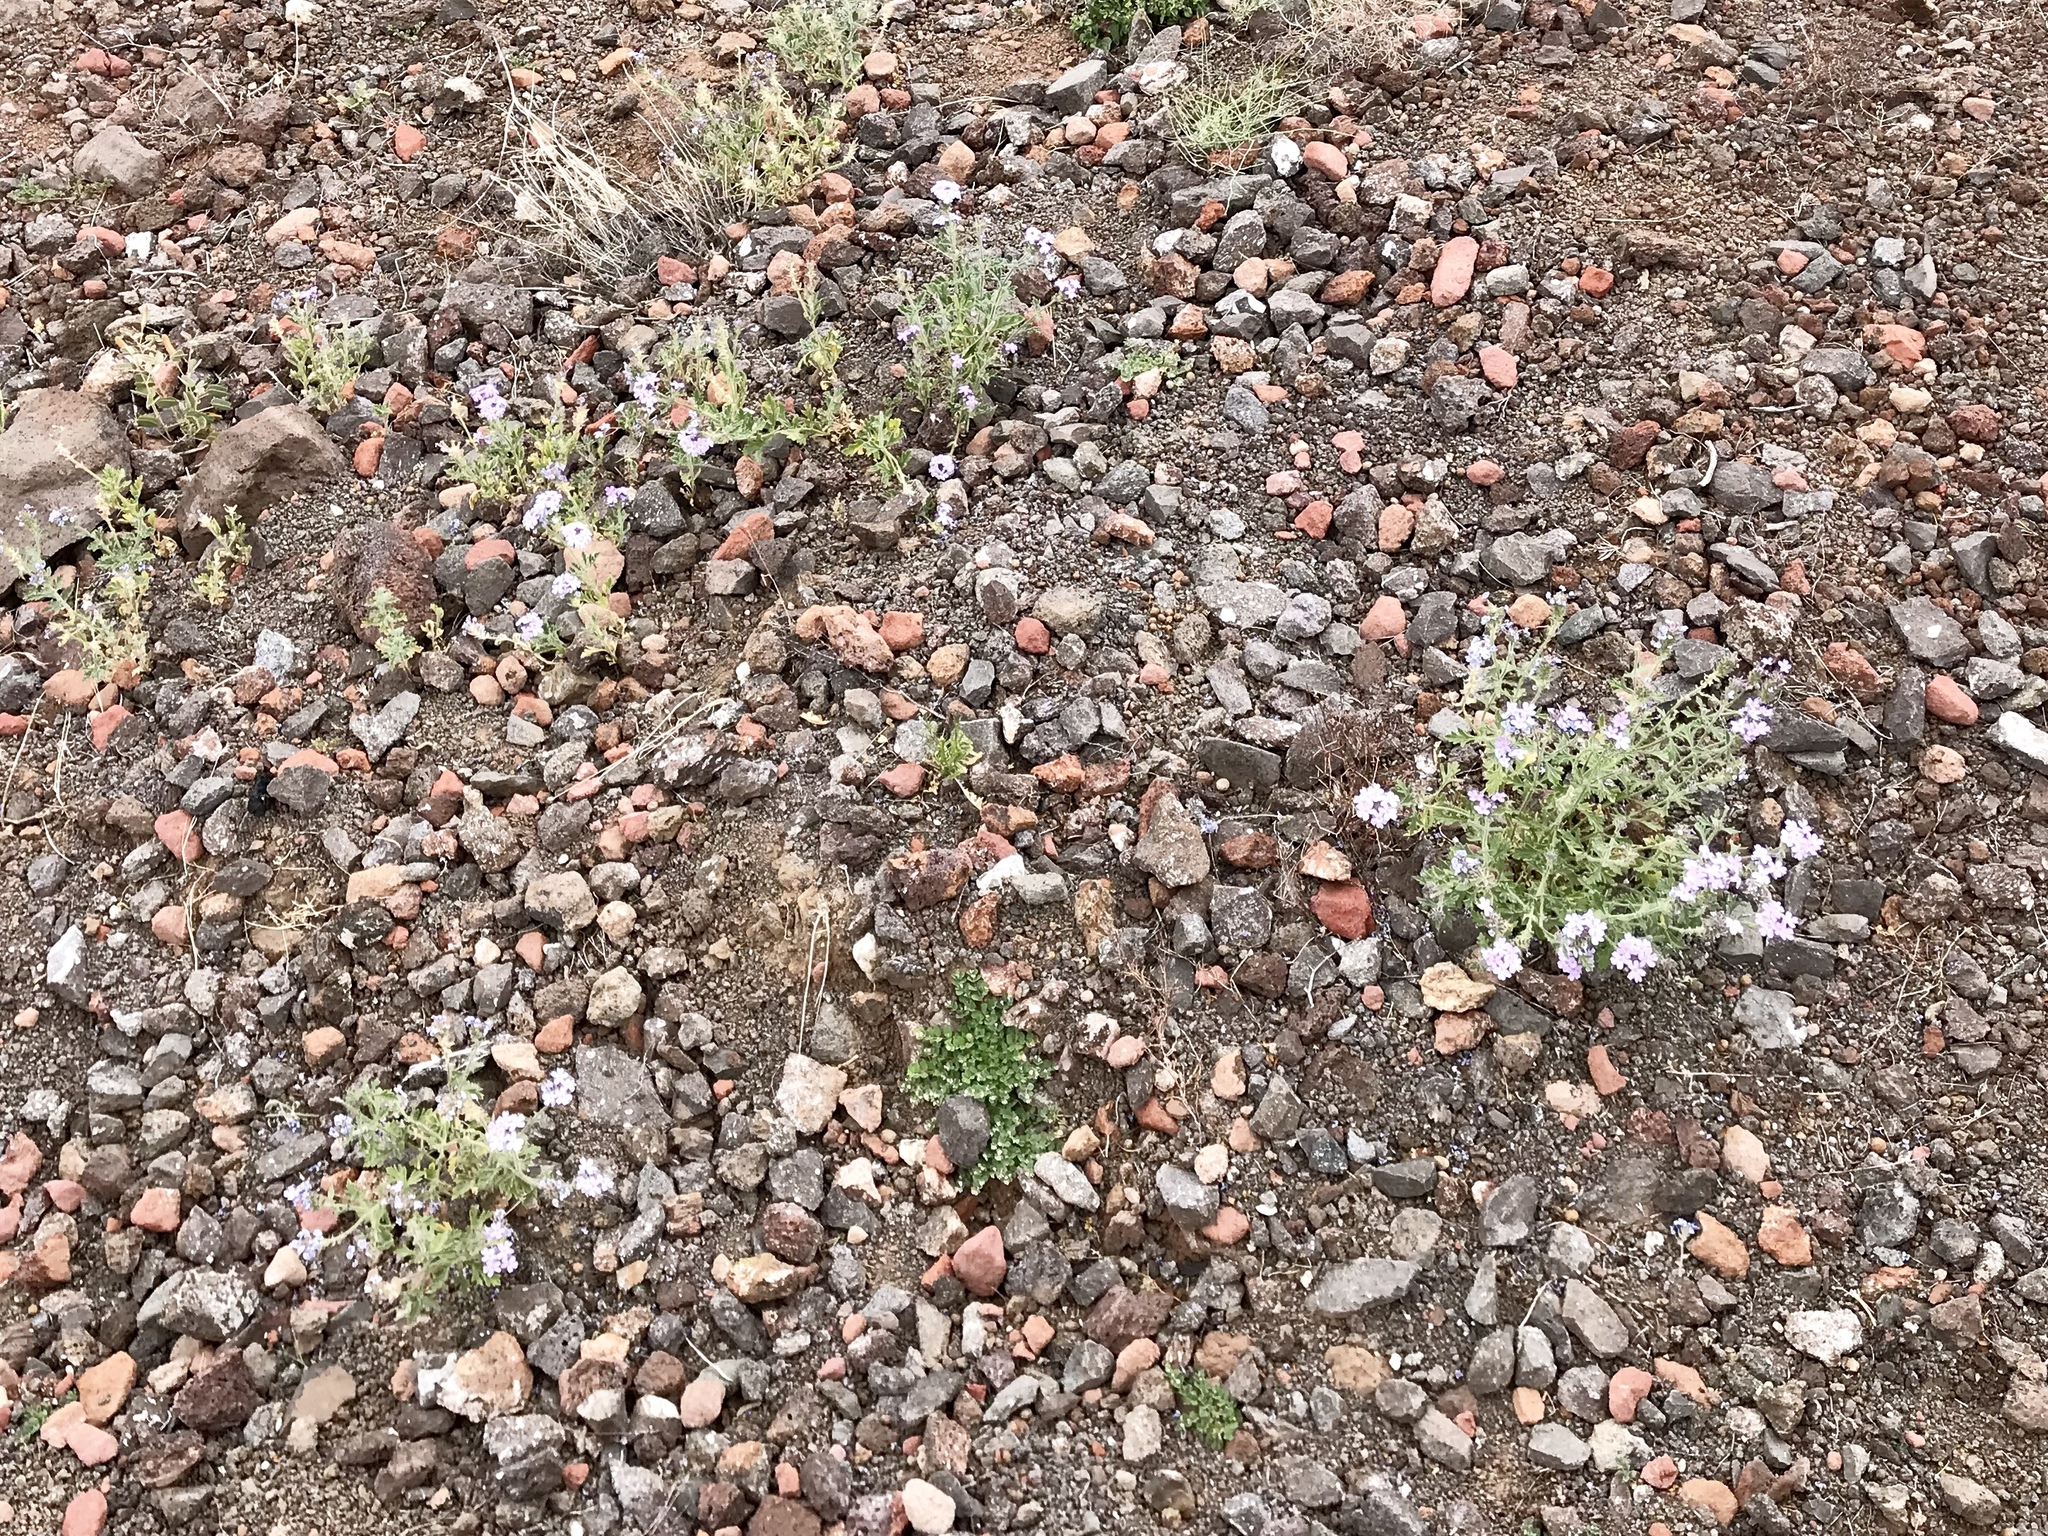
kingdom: Plantae
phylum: Tracheophyta
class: Magnoliopsida
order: Lamiales
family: Verbenaceae
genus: Verbena
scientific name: Verbena gooddingii
